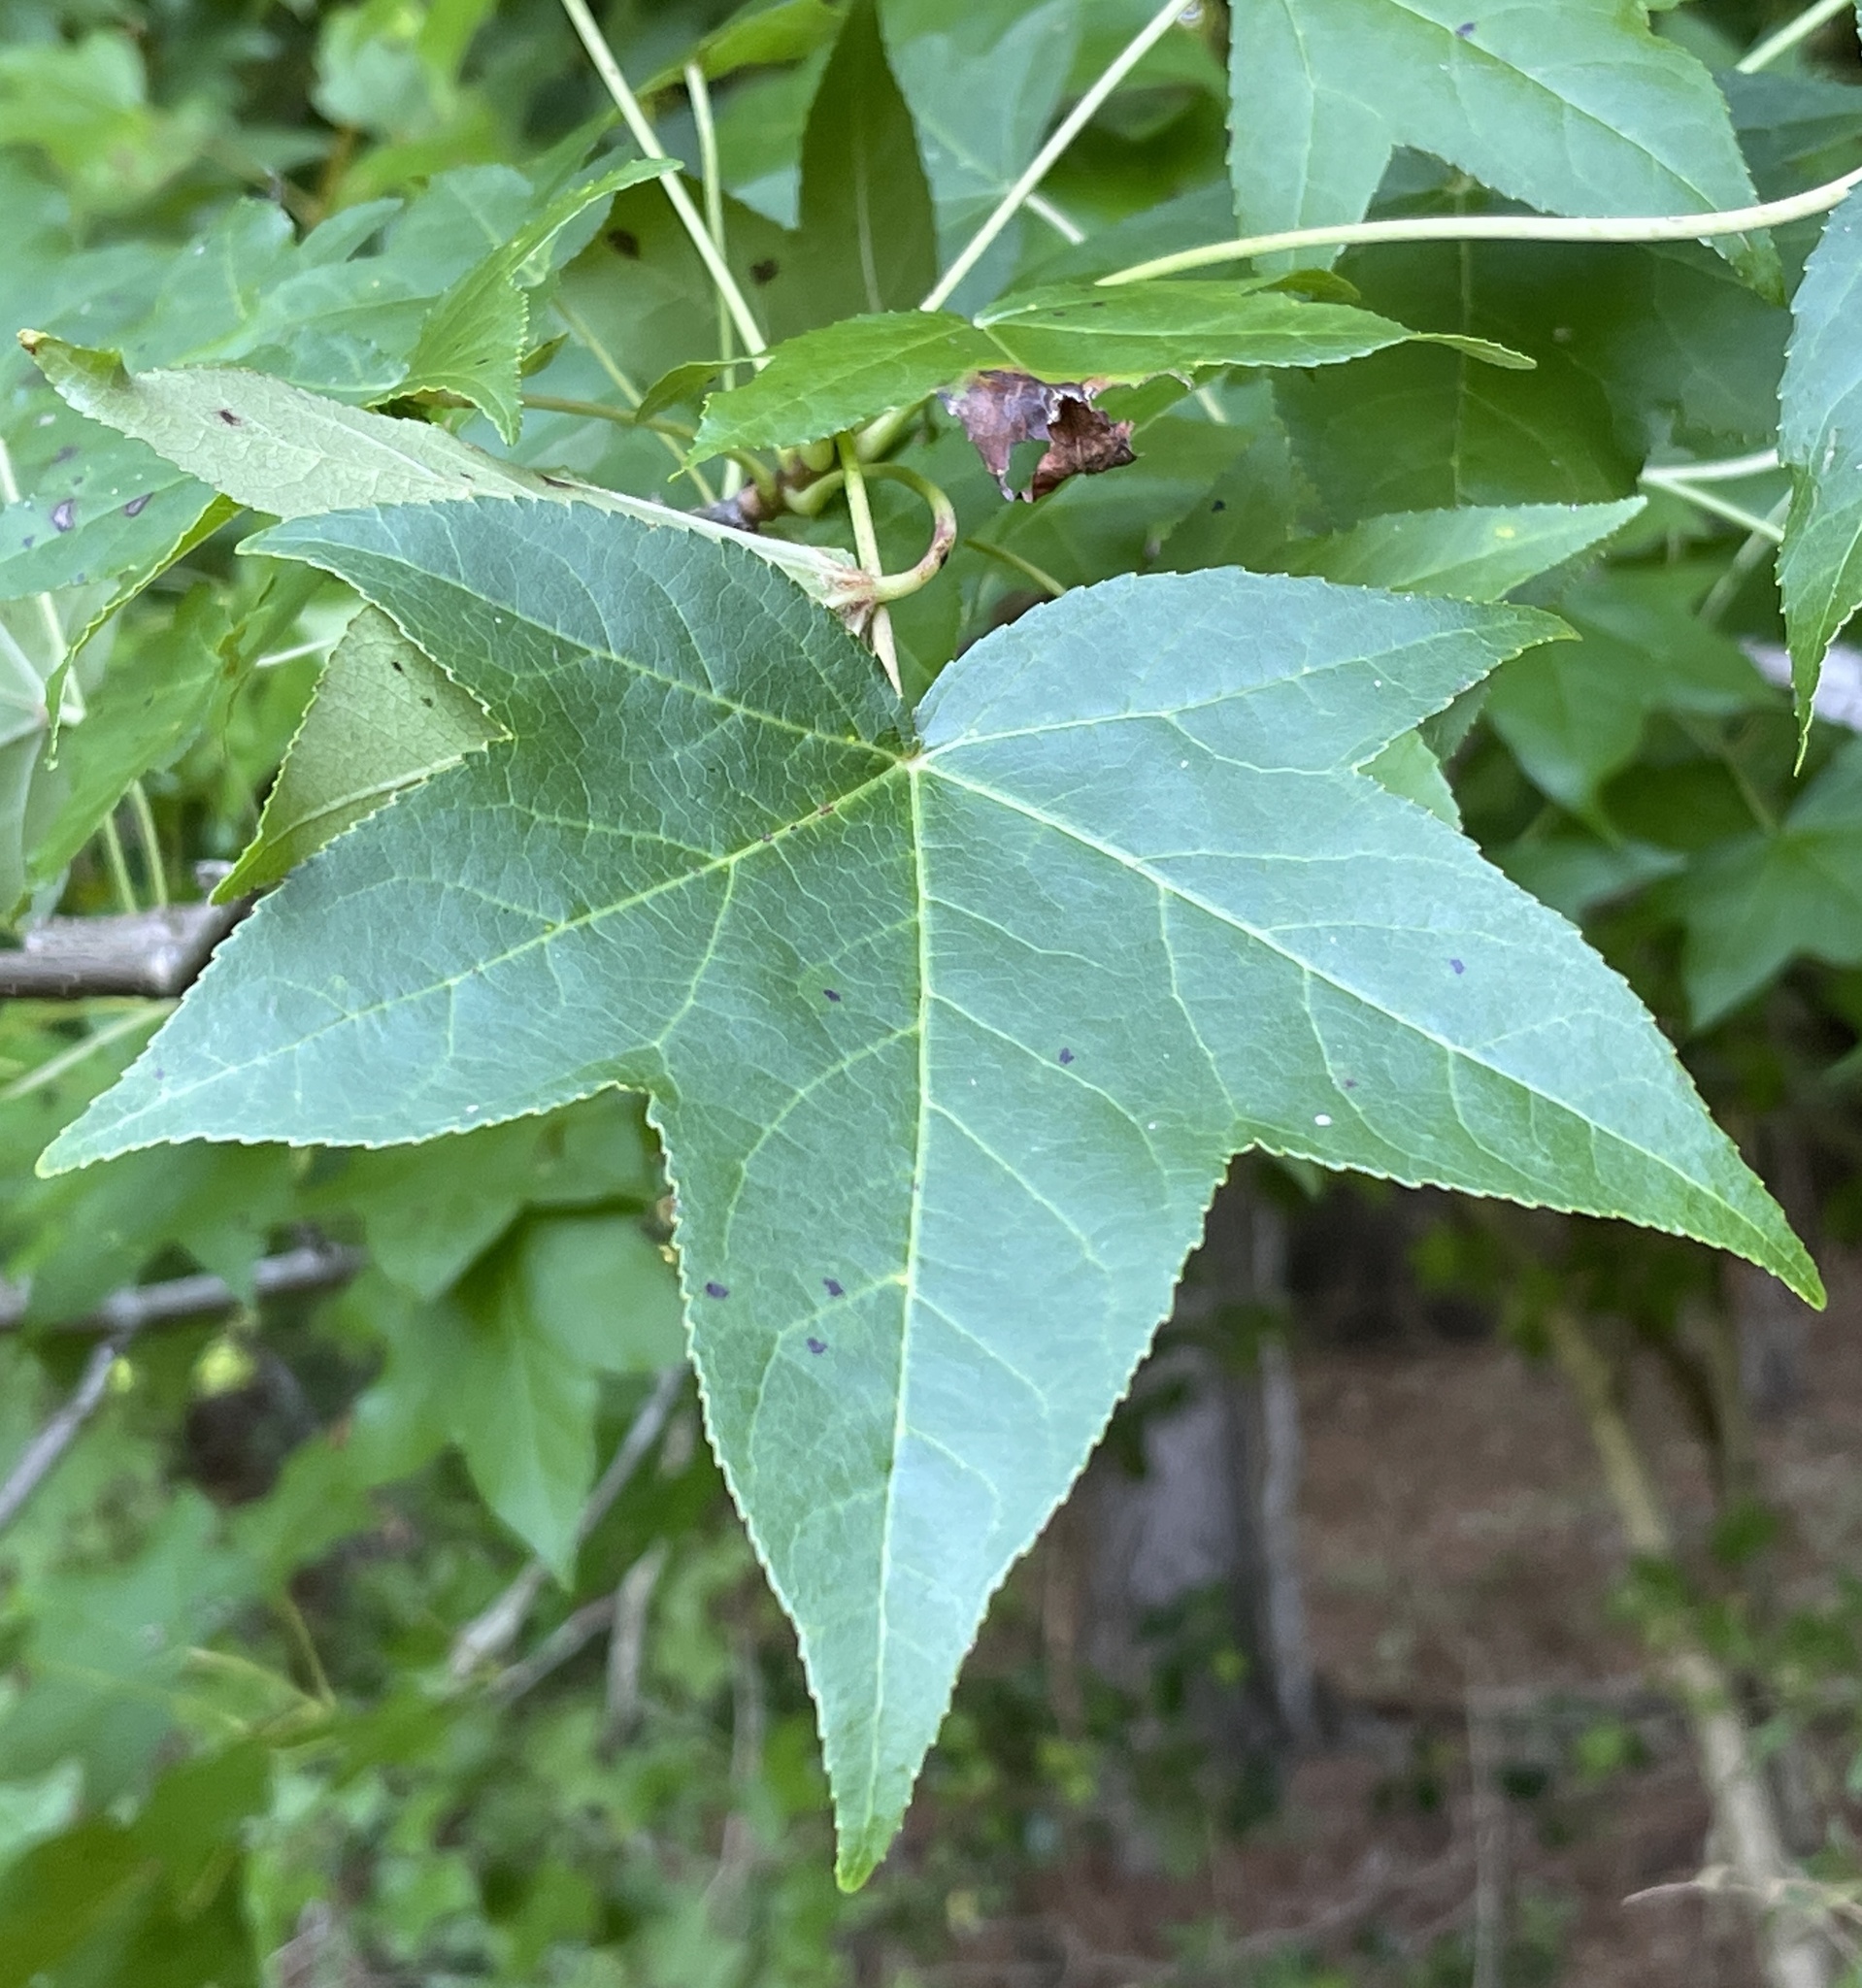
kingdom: Plantae
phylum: Tracheophyta
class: Magnoliopsida
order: Saxifragales
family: Altingiaceae
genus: Liquidambar
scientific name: Liquidambar styraciflua
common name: Sweet gum
